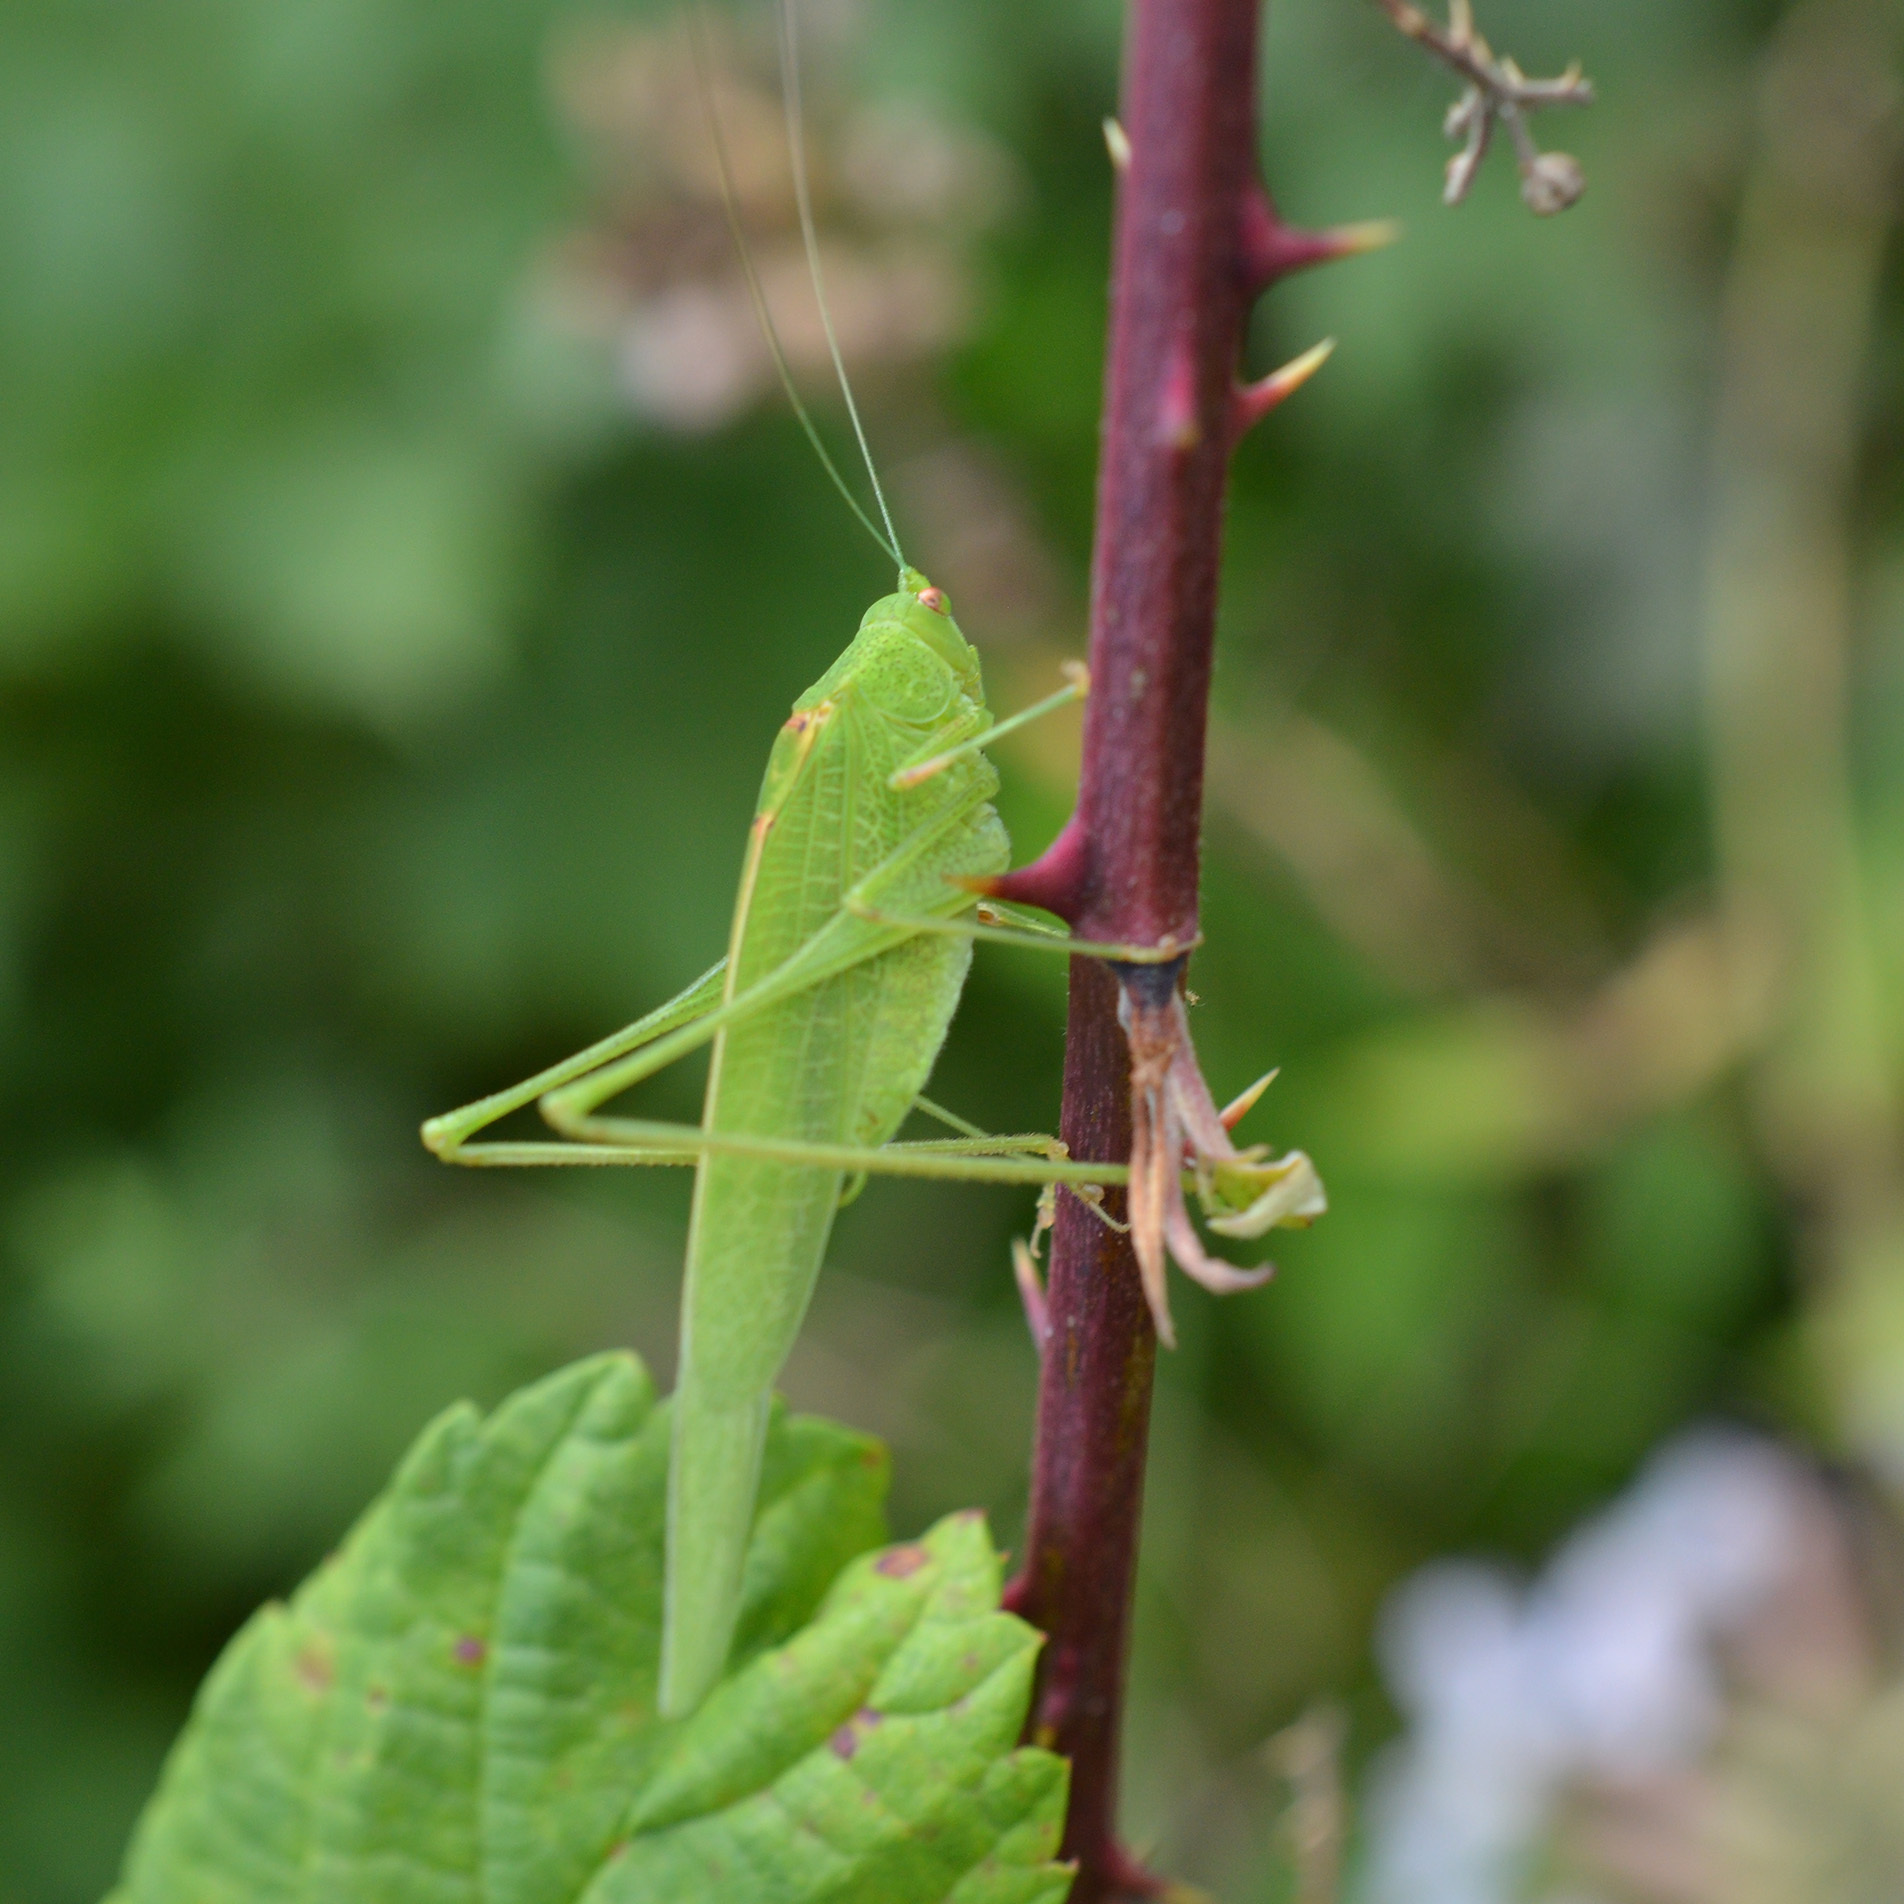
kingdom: Animalia
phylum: Arthropoda
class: Insecta
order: Orthoptera
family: Tettigoniidae
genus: Phaneroptera
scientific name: Phaneroptera nana
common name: Southern sickle bush-cricket
